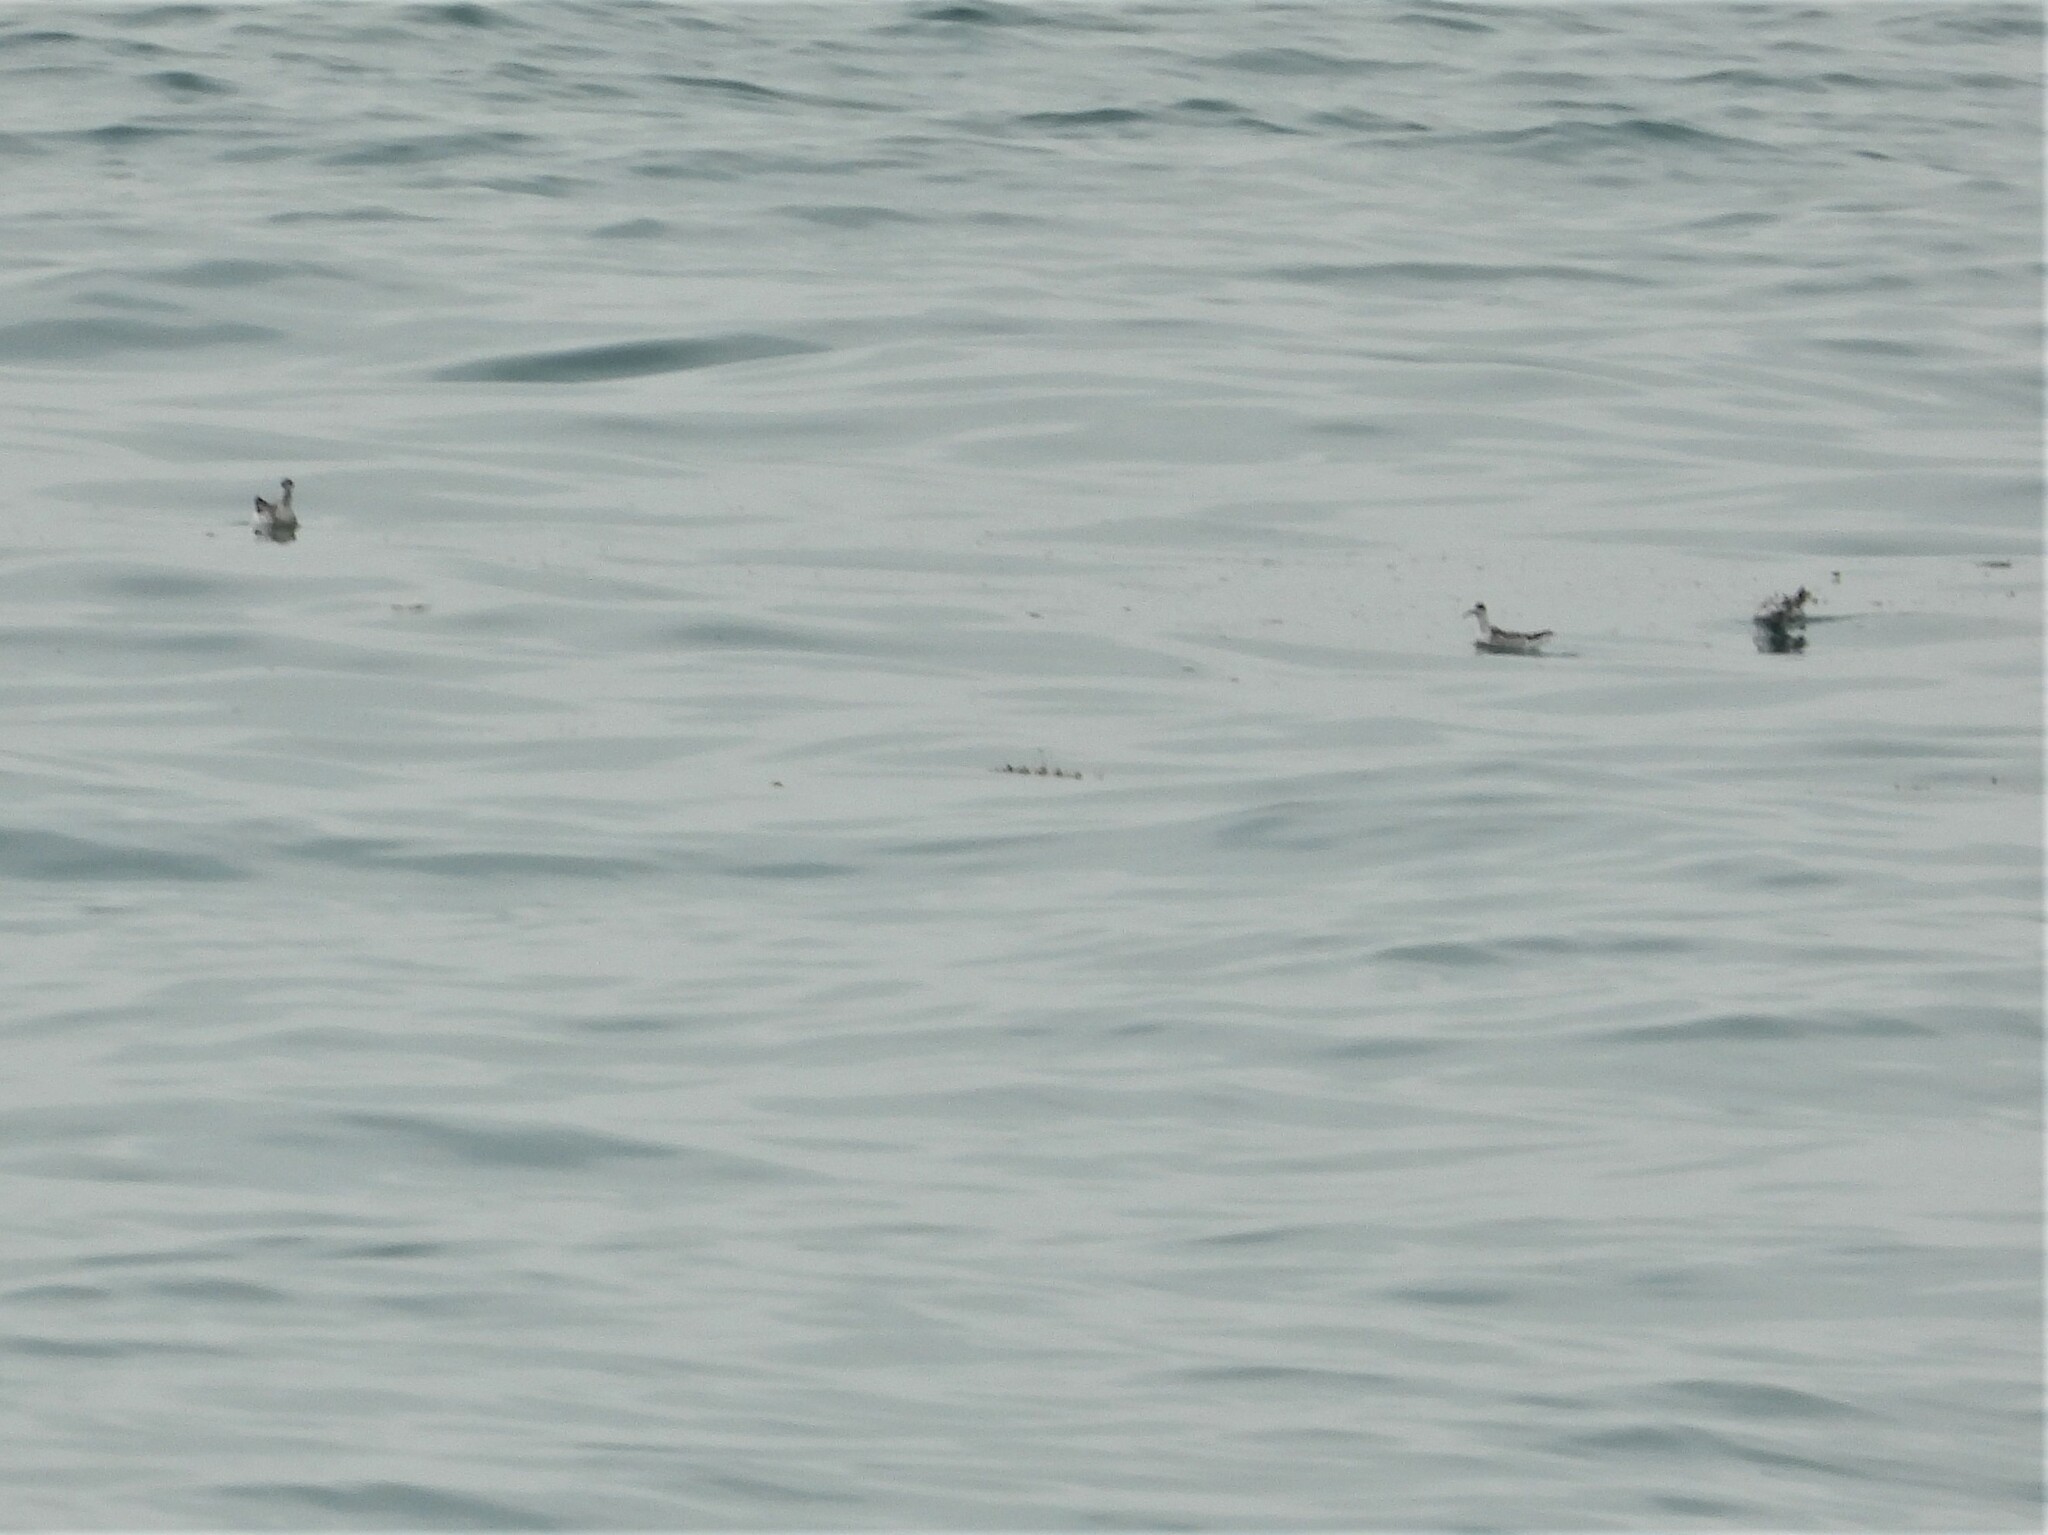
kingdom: Animalia
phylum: Chordata
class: Aves
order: Charadriiformes
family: Scolopacidae
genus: Phalaropus
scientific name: Phalaropus lobatus
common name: Red-necked phalarope
